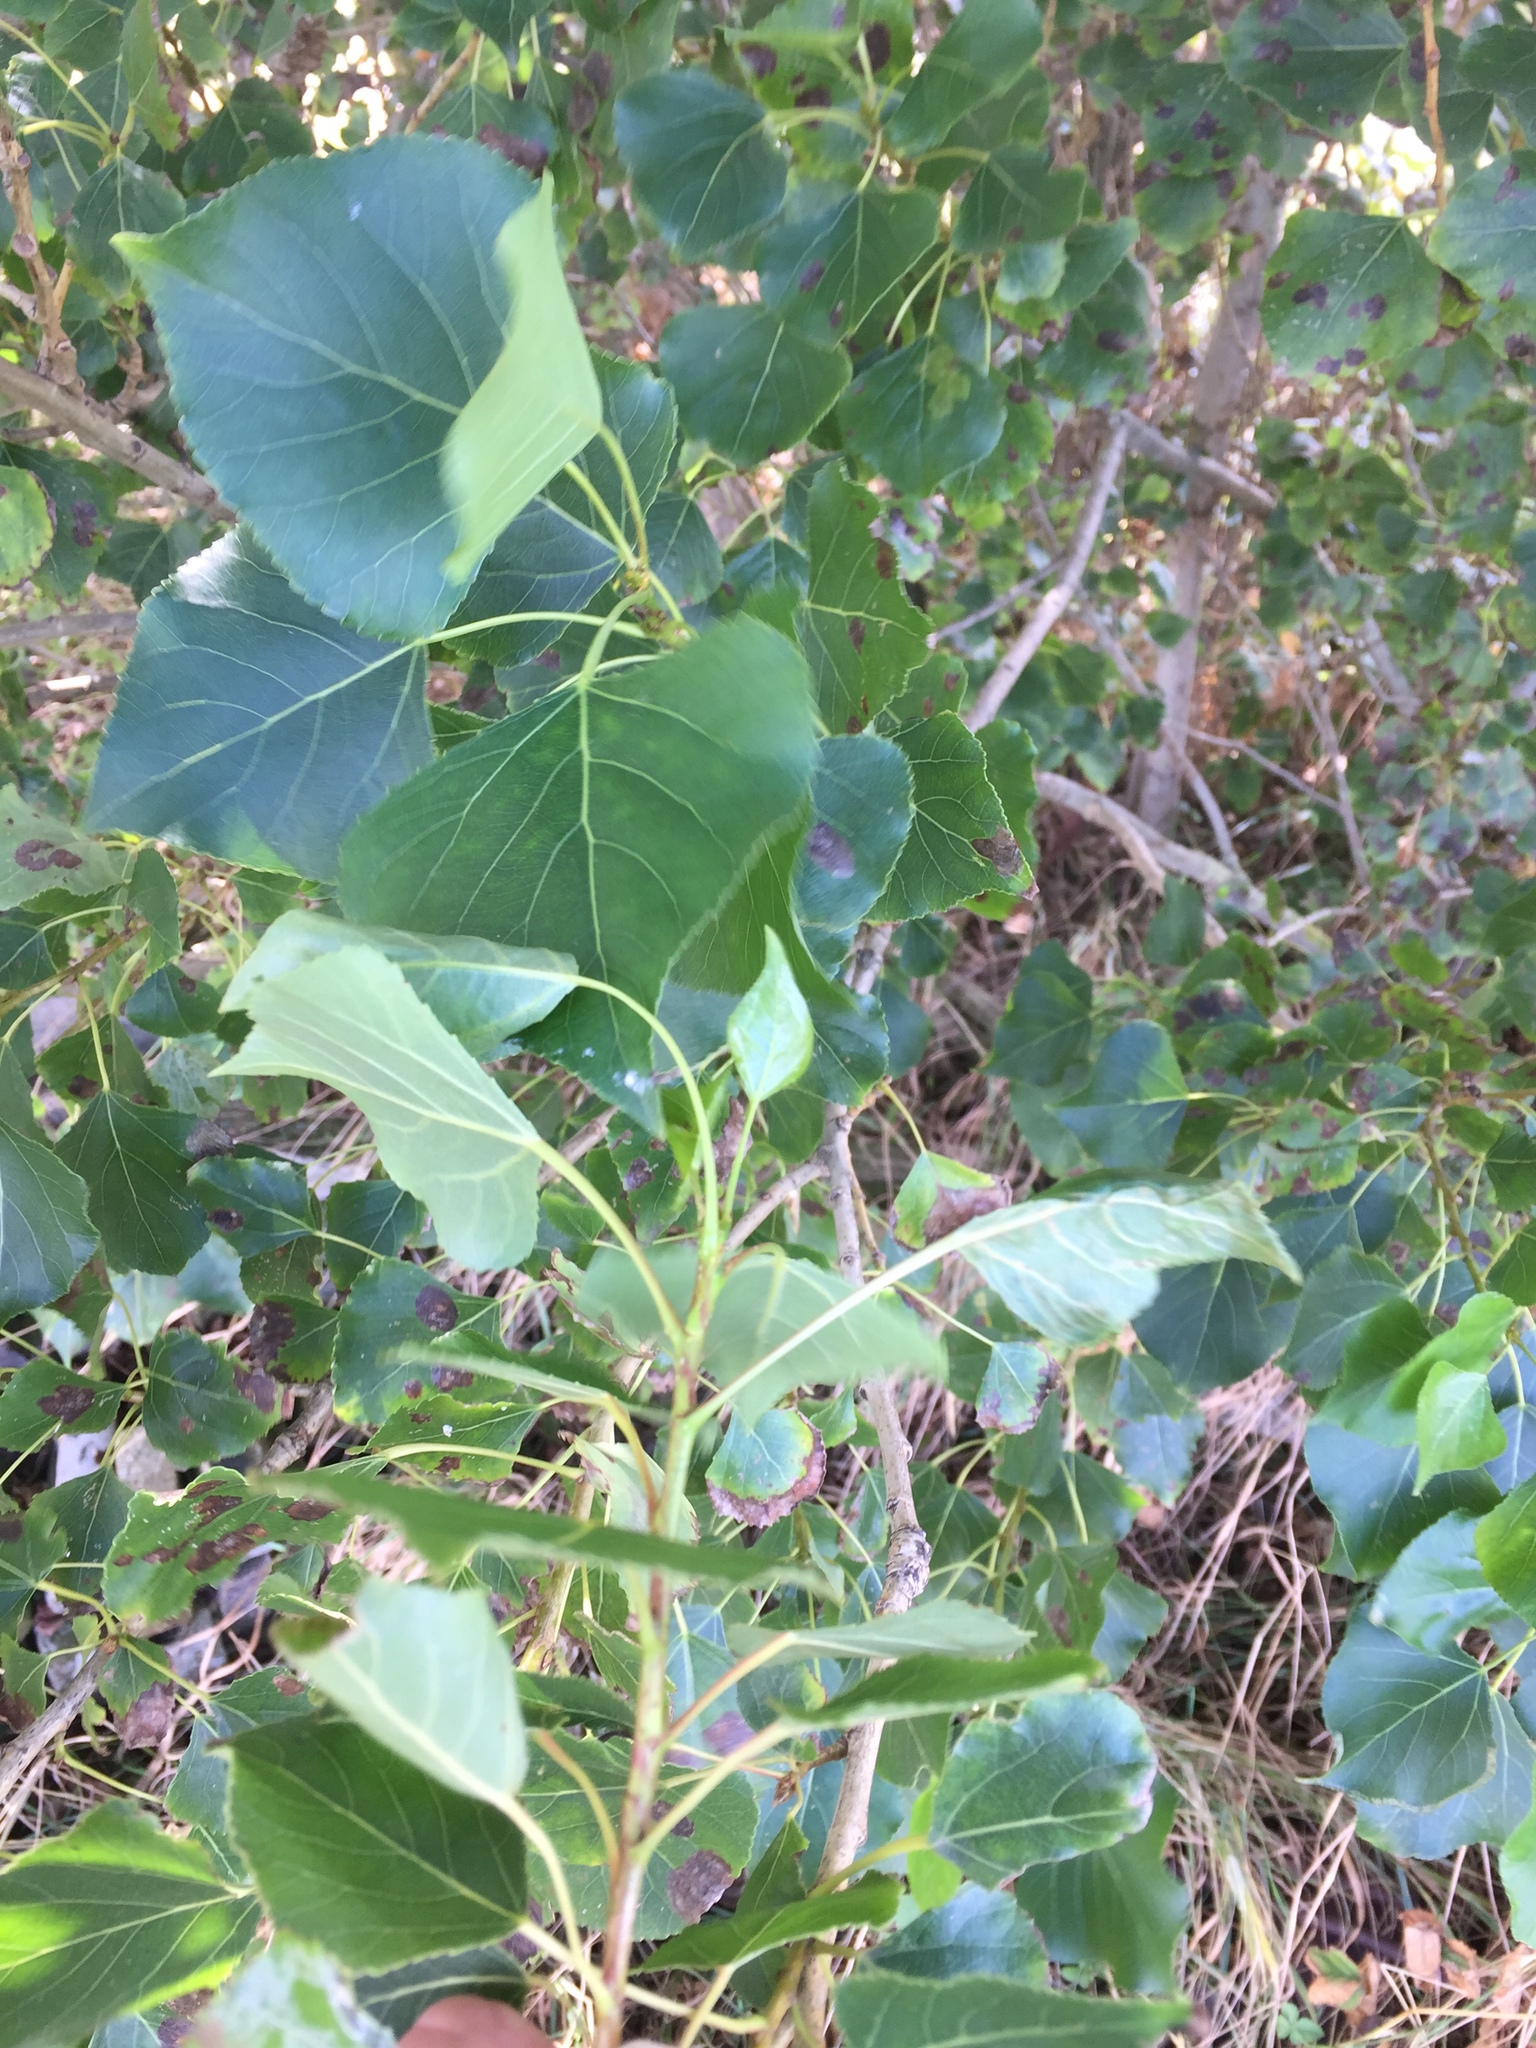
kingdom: Plantae
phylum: Tracheophyta
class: Magnoliopsida
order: Malpighiales
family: Salicaceae
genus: Populus
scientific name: Populus nigra
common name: Black poplar
